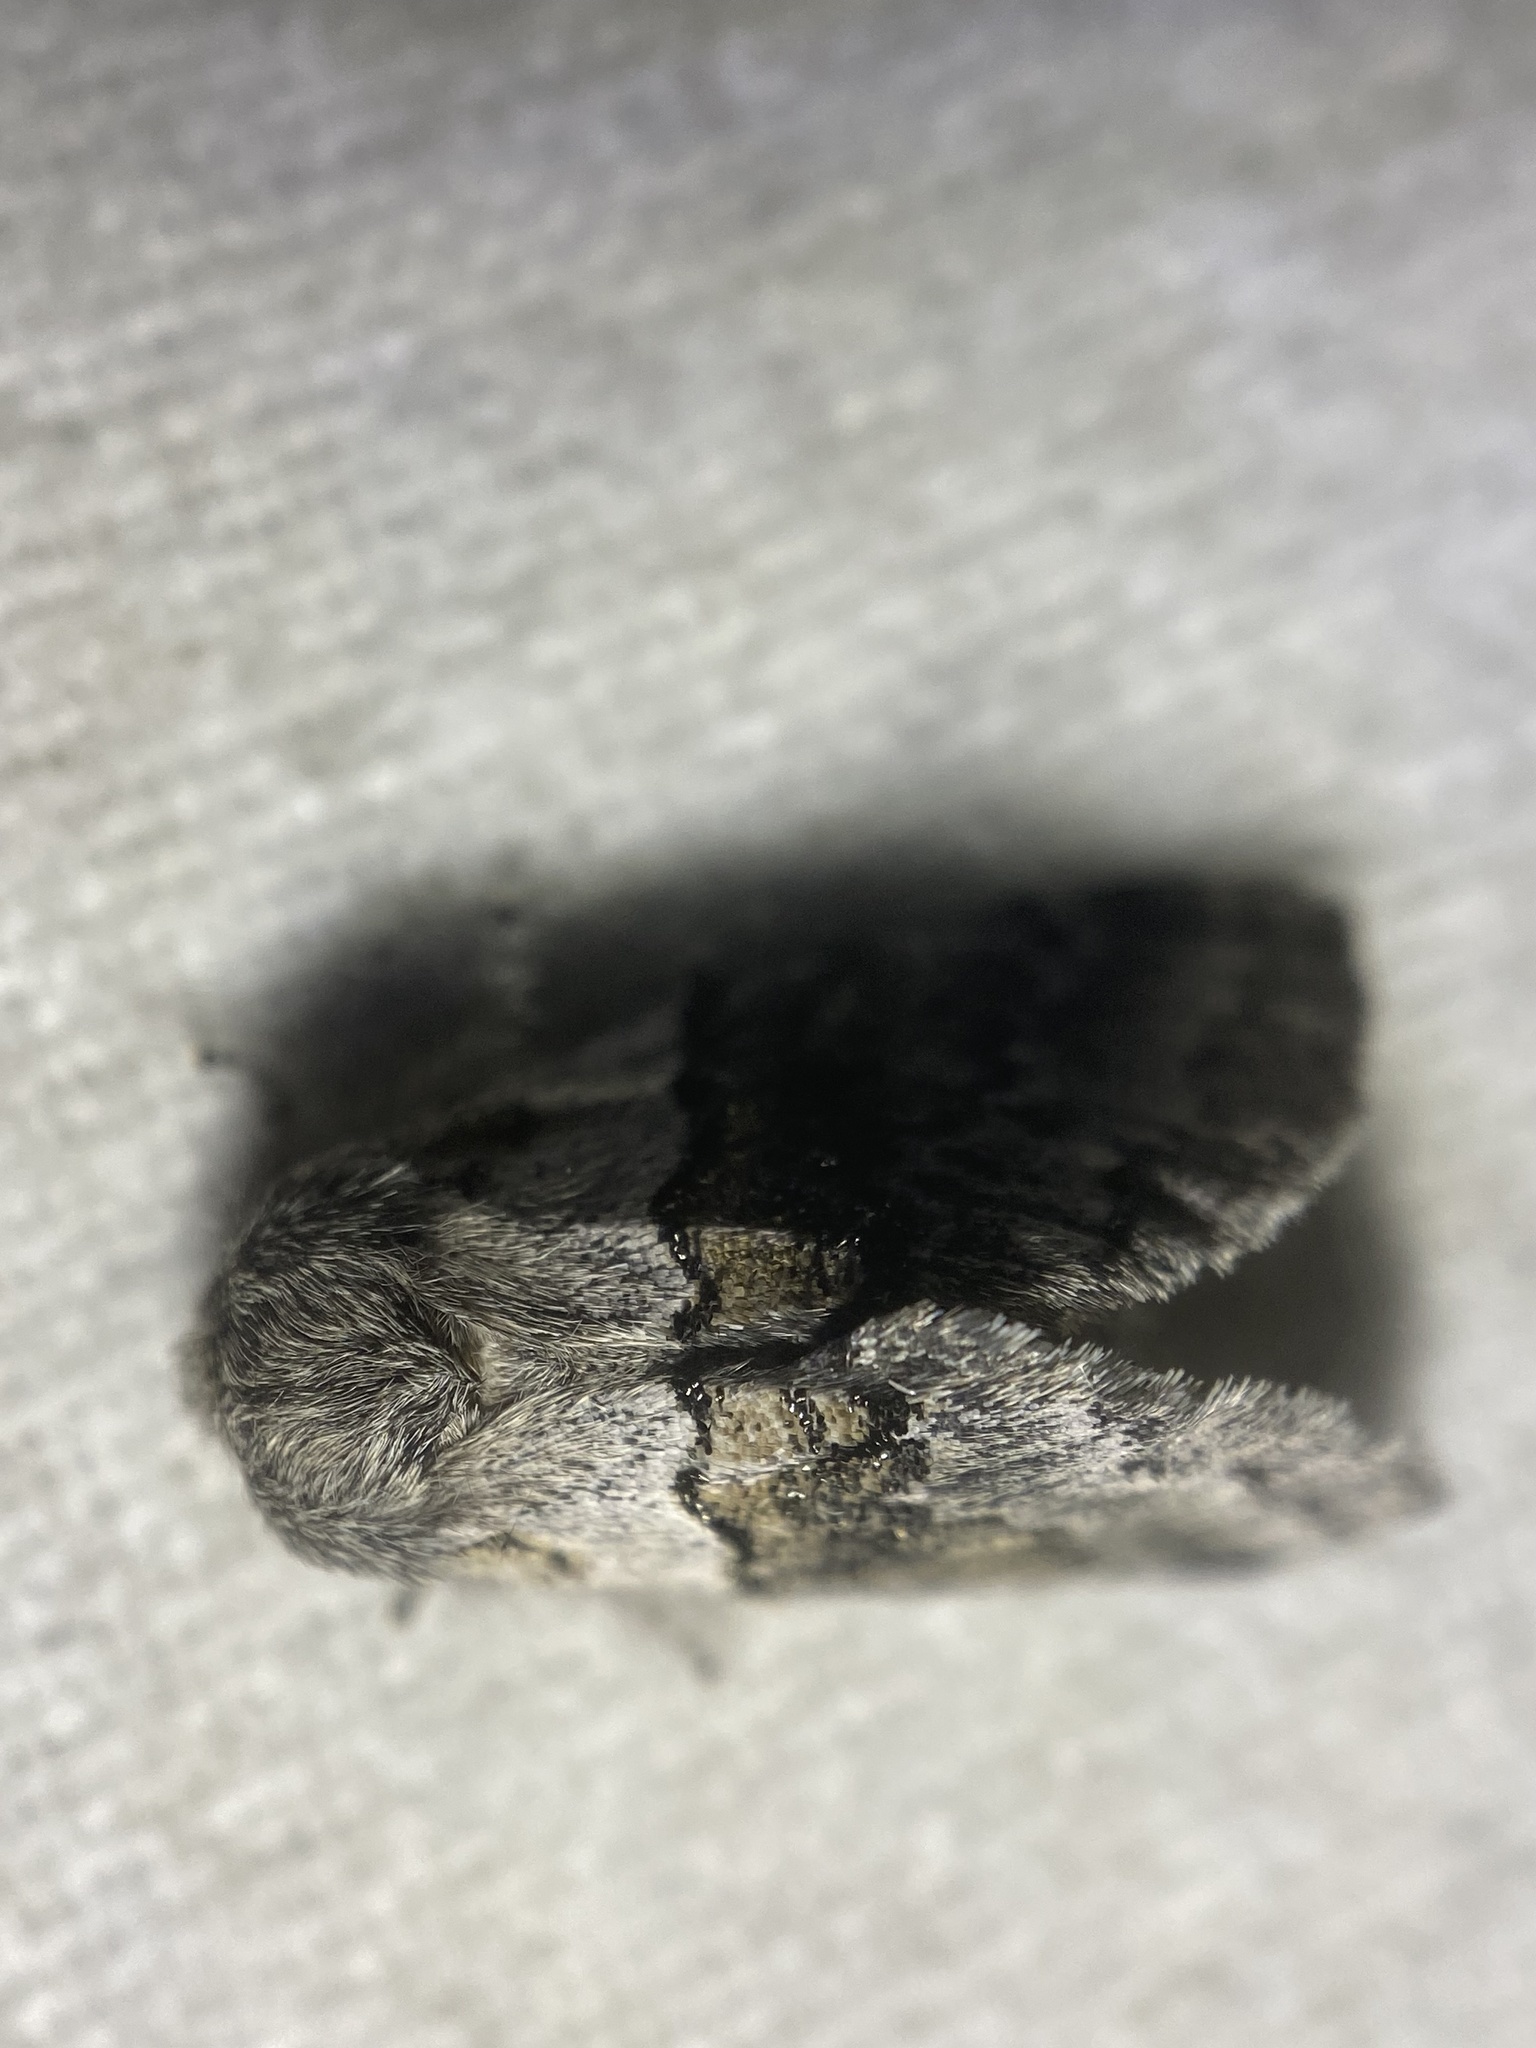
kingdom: Animalia
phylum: Arthropoda
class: Insecta
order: Lepidoptera
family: Notodontidae
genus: Gluphisia
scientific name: Gluphisia septentrionis
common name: Common gluphisia
